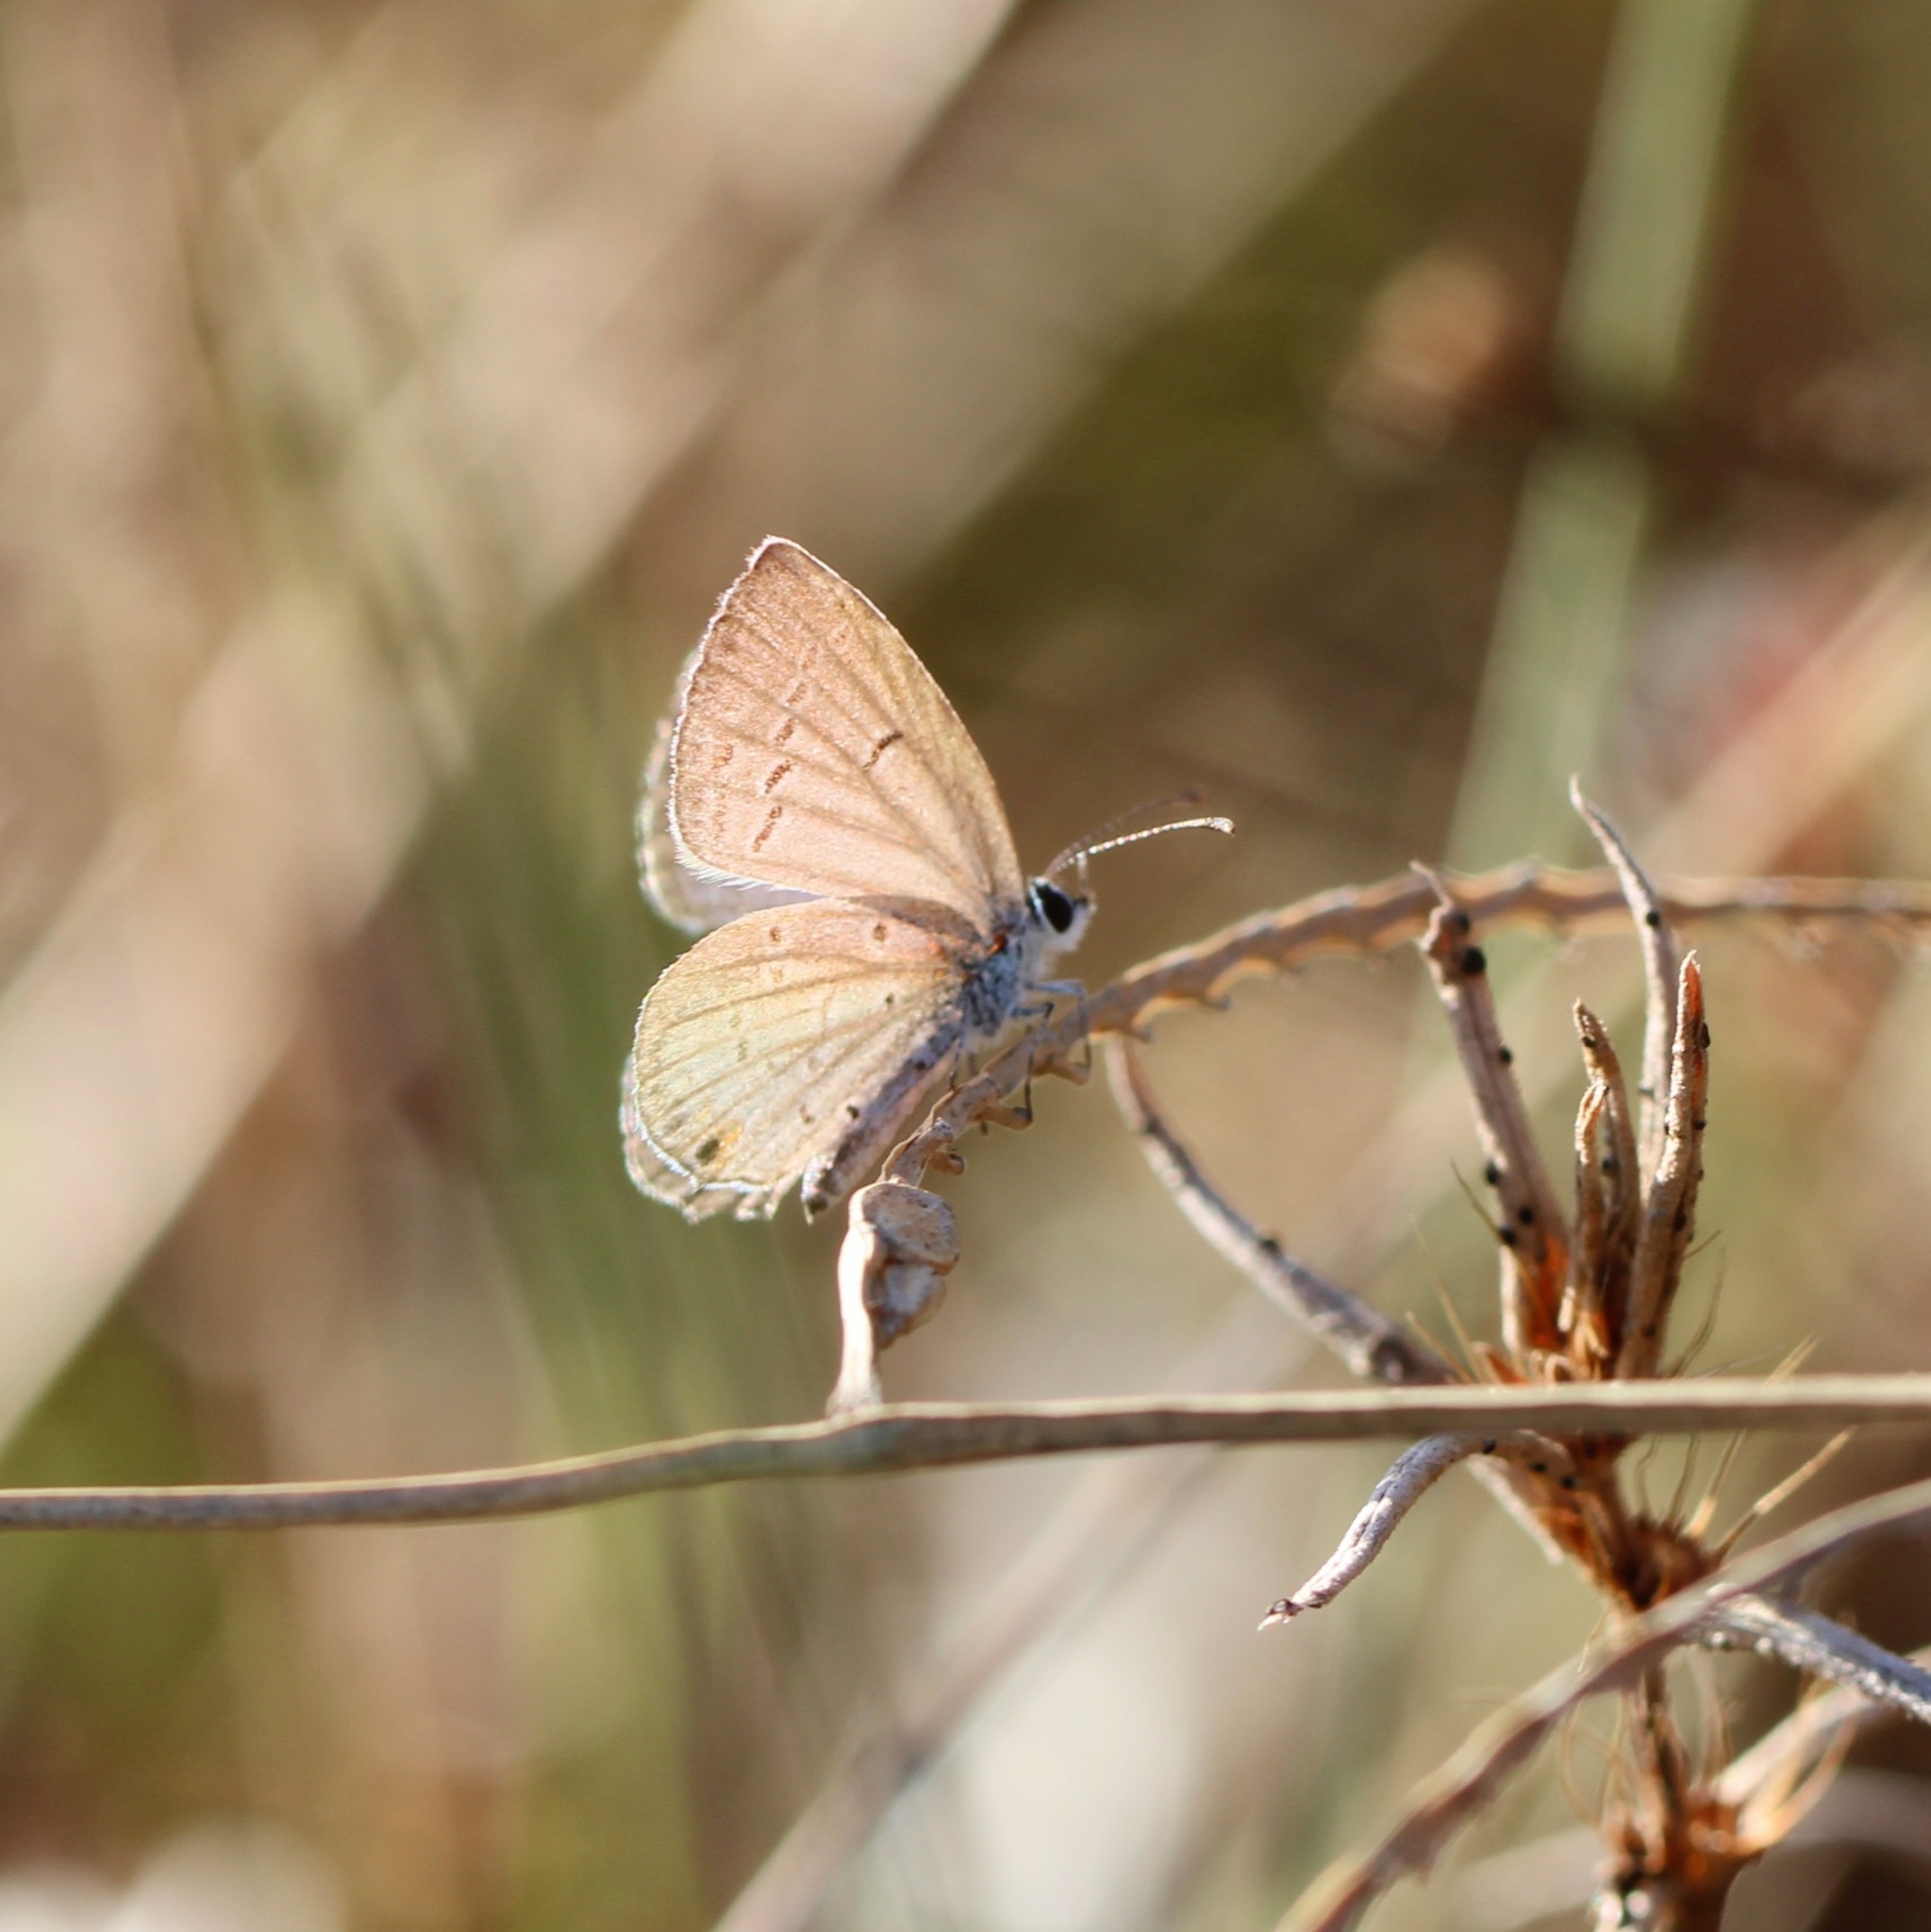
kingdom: Animalia
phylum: Arthropoda
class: Insecta
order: Lepidoptera
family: Lycaenidae
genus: Elkalyce
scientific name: Elkalyce comyntas
